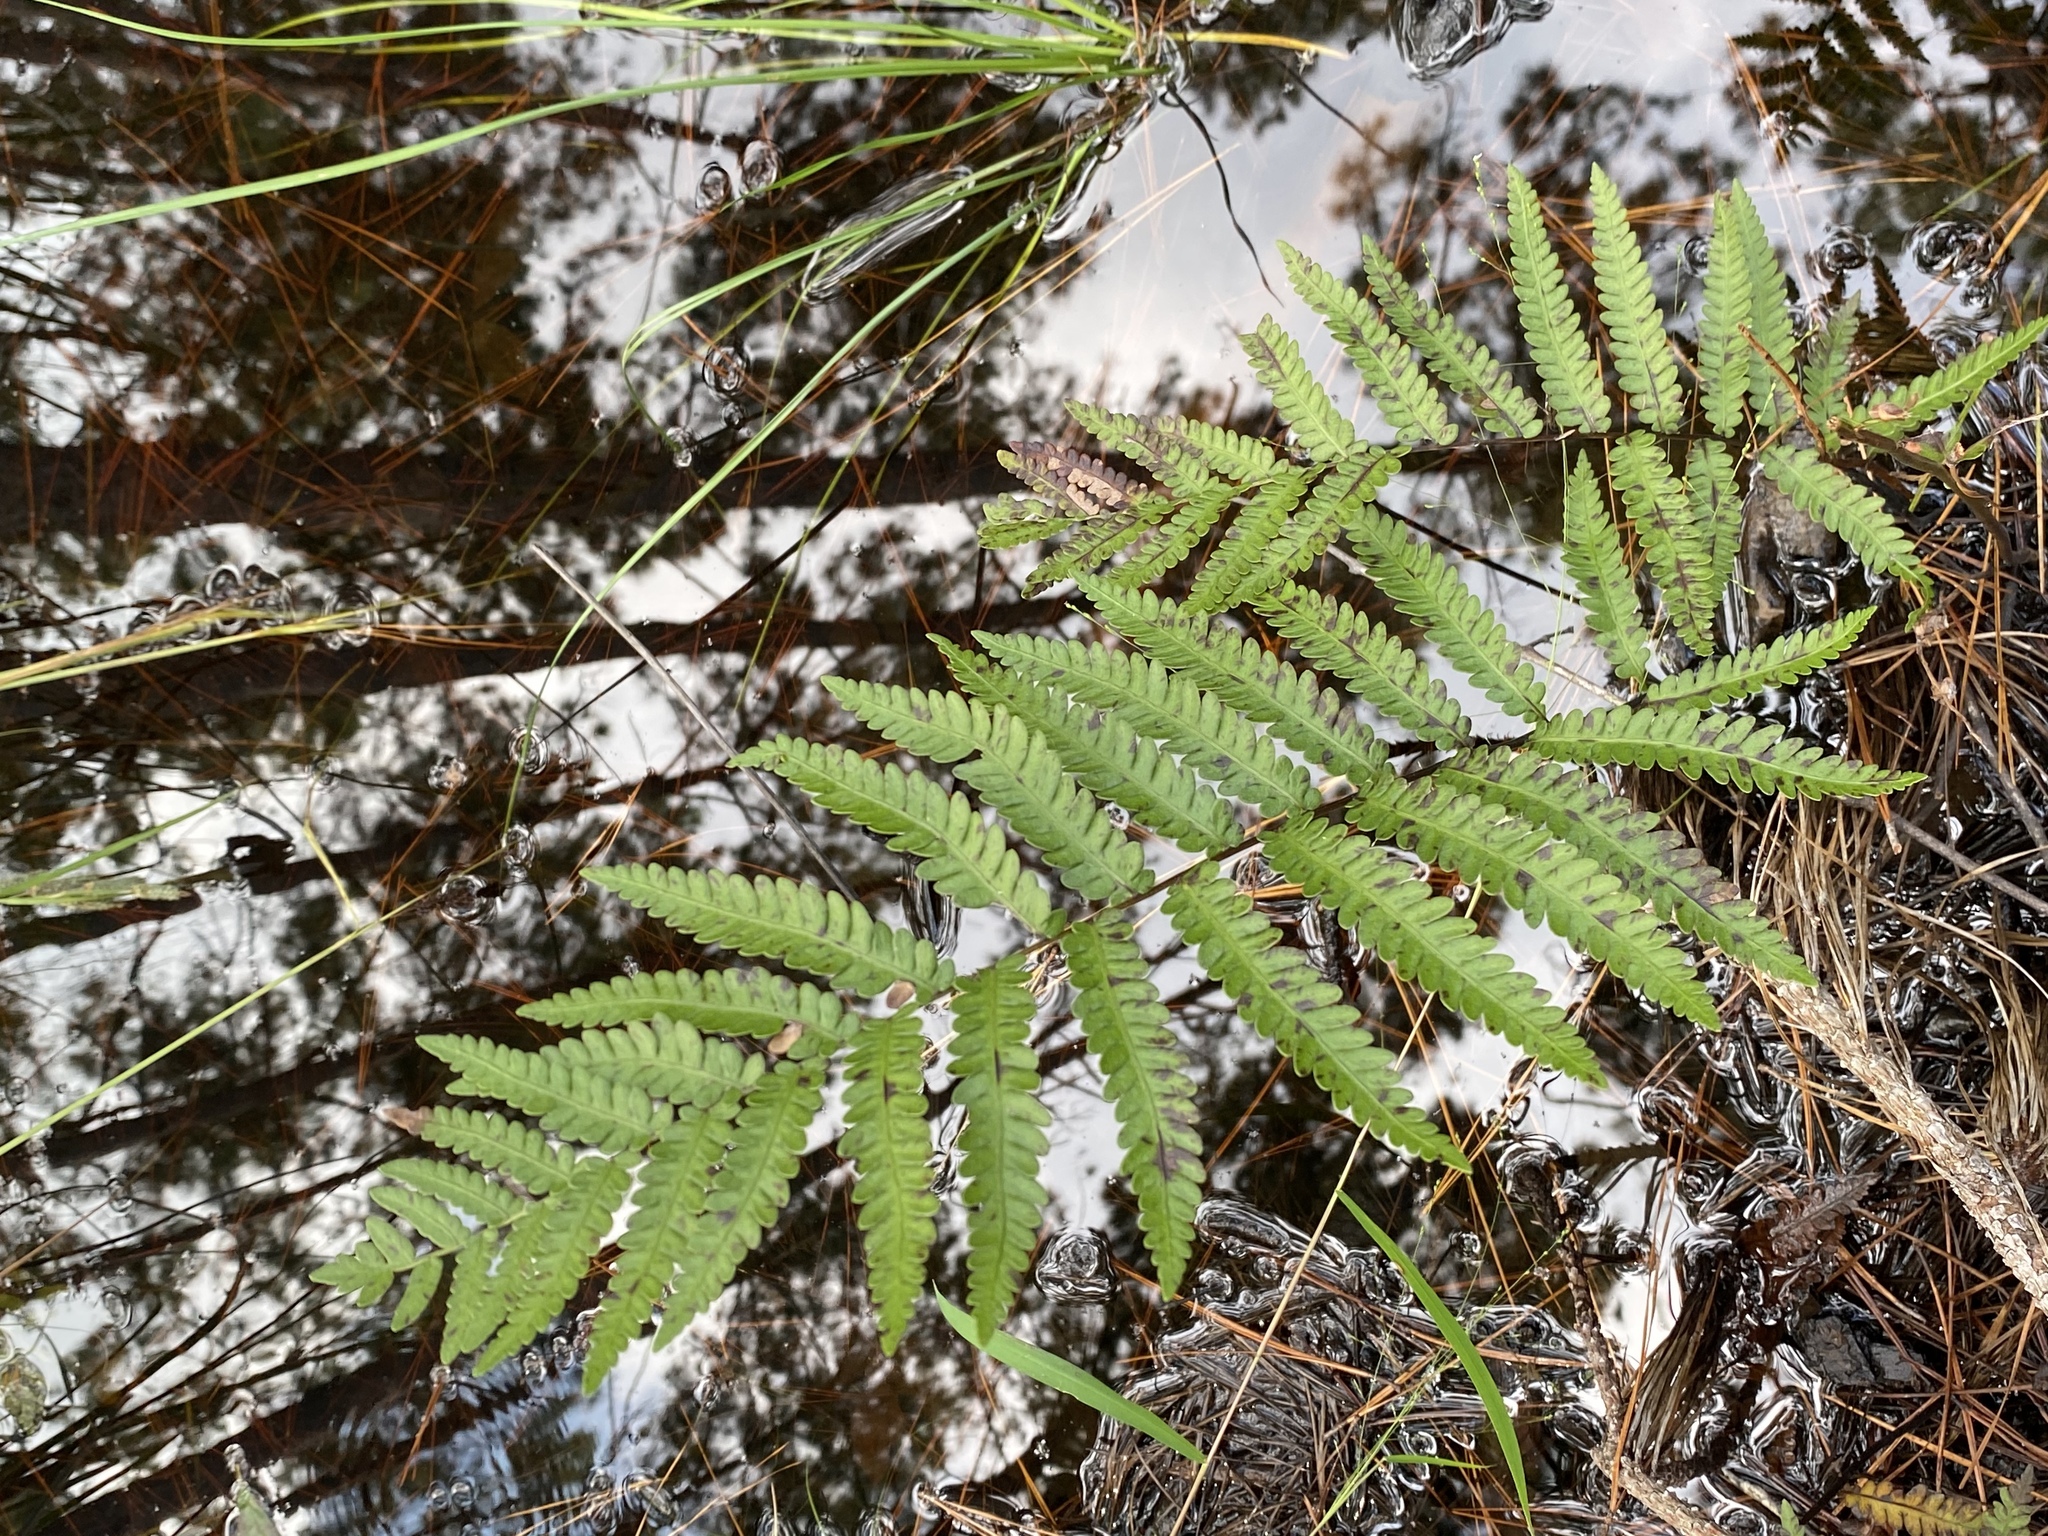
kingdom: Plantae
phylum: Tracheophyta
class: Polypodiopsida
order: Polypodiales
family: Blechnaceae
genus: Anchistea
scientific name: Anchistea virginica
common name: Virginia chain fern
